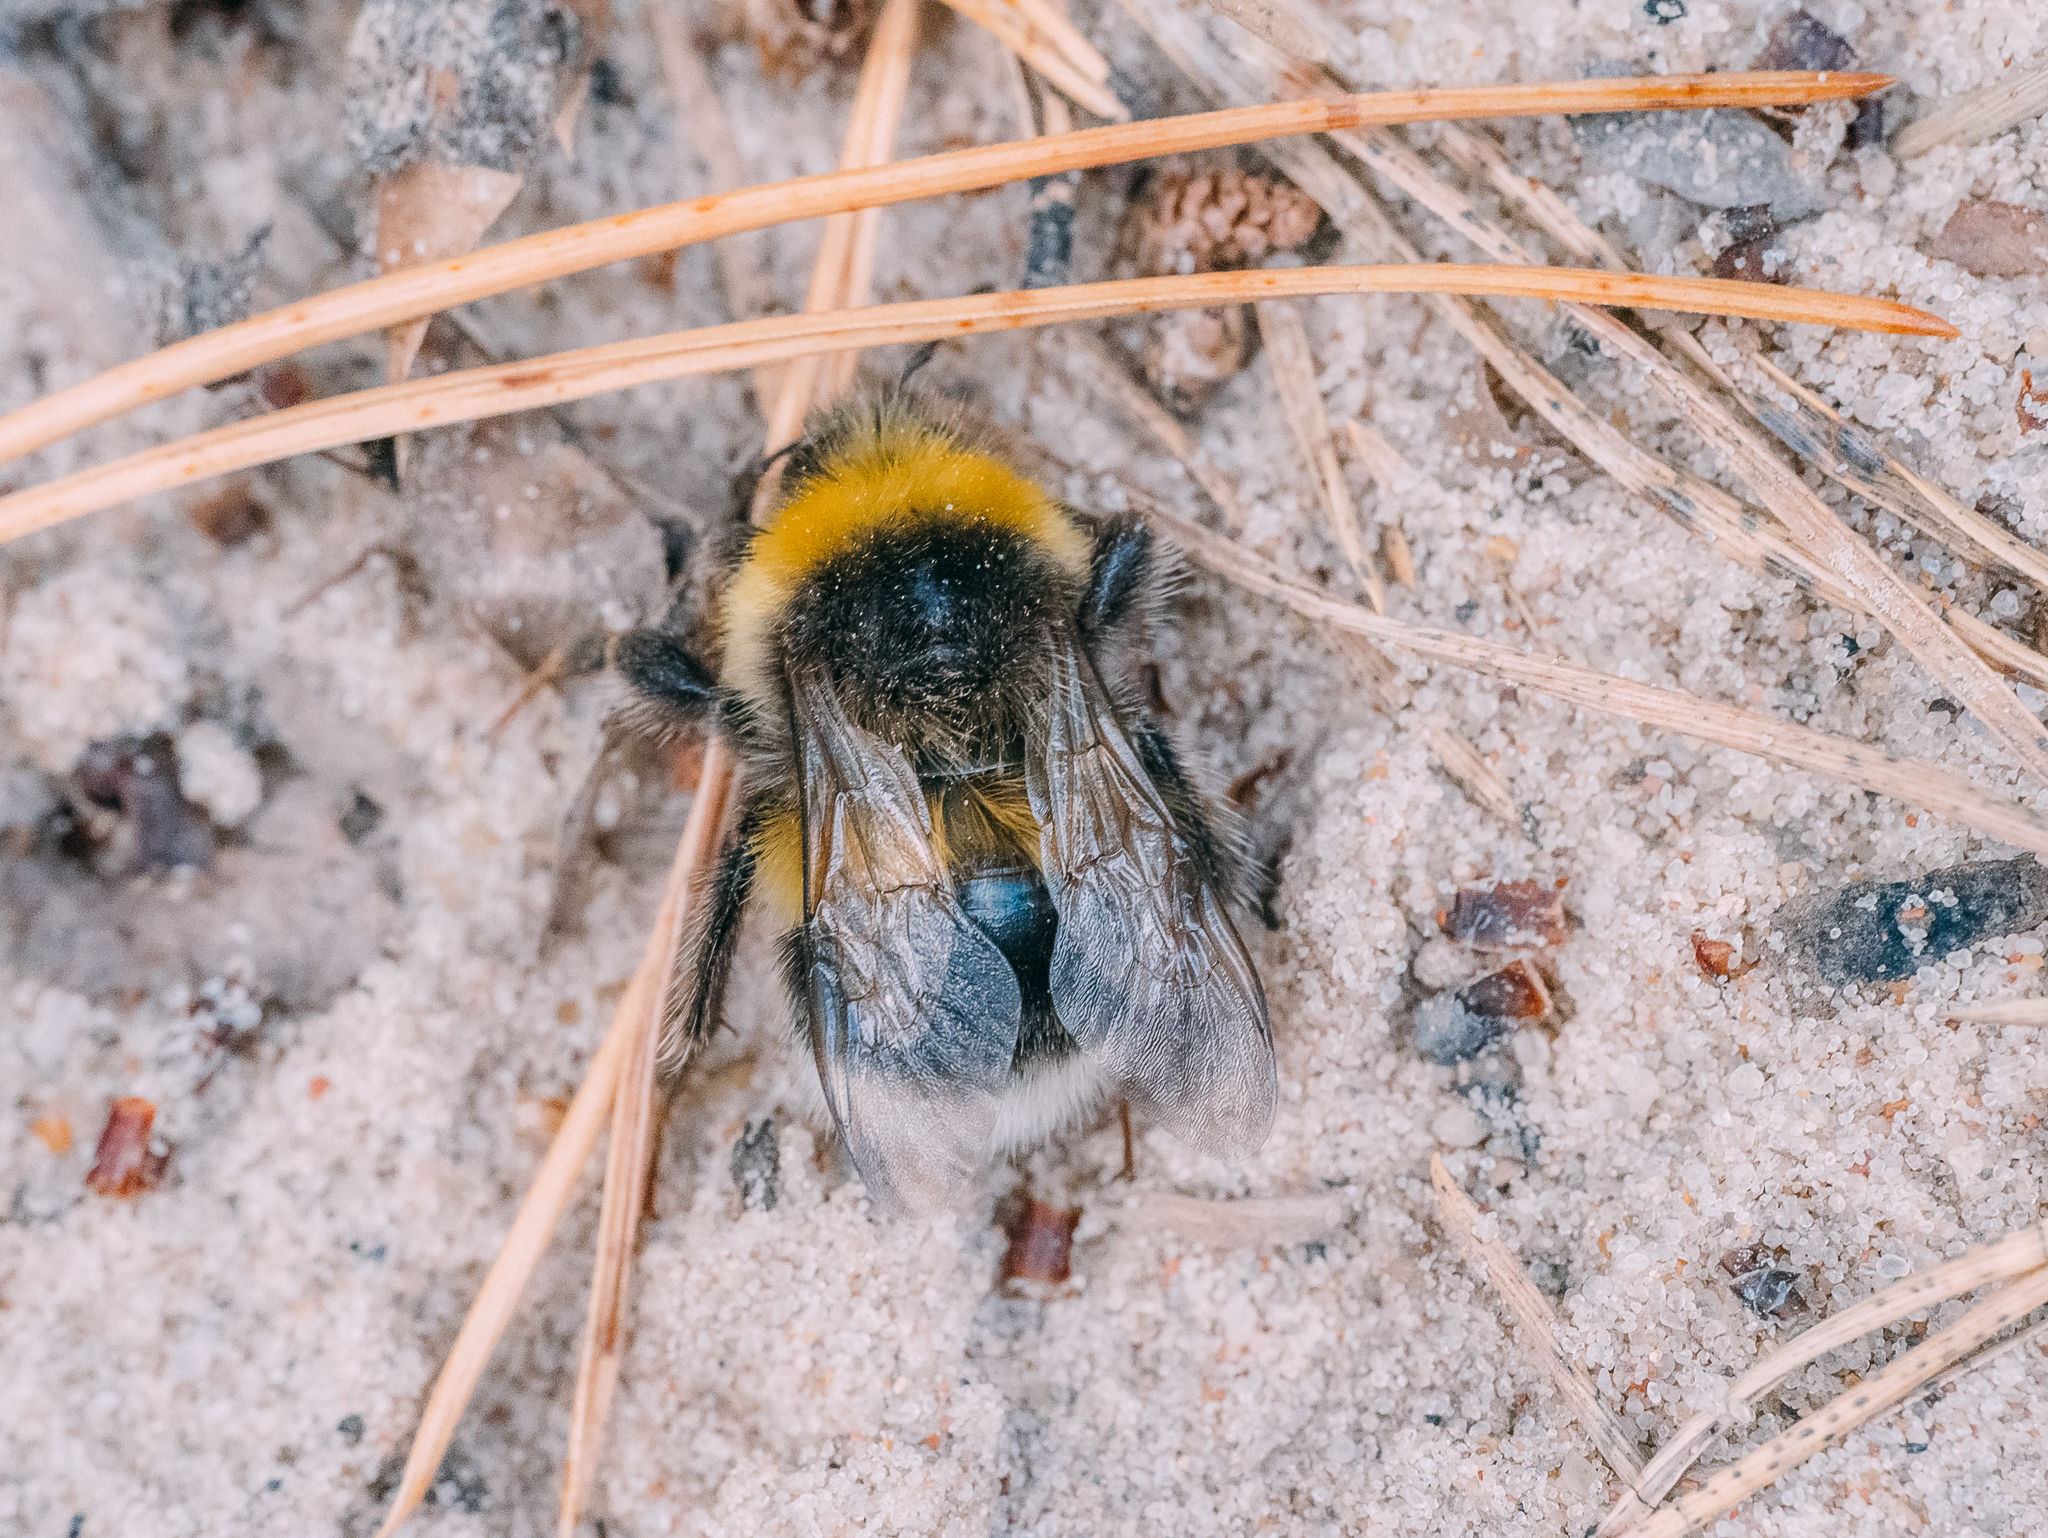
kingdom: Animalia
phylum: Arthropoda
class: Insecta
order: Hymenoptera
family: Apidae
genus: Bombus
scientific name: Bombus lucorum
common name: White-tailed bumblebee
